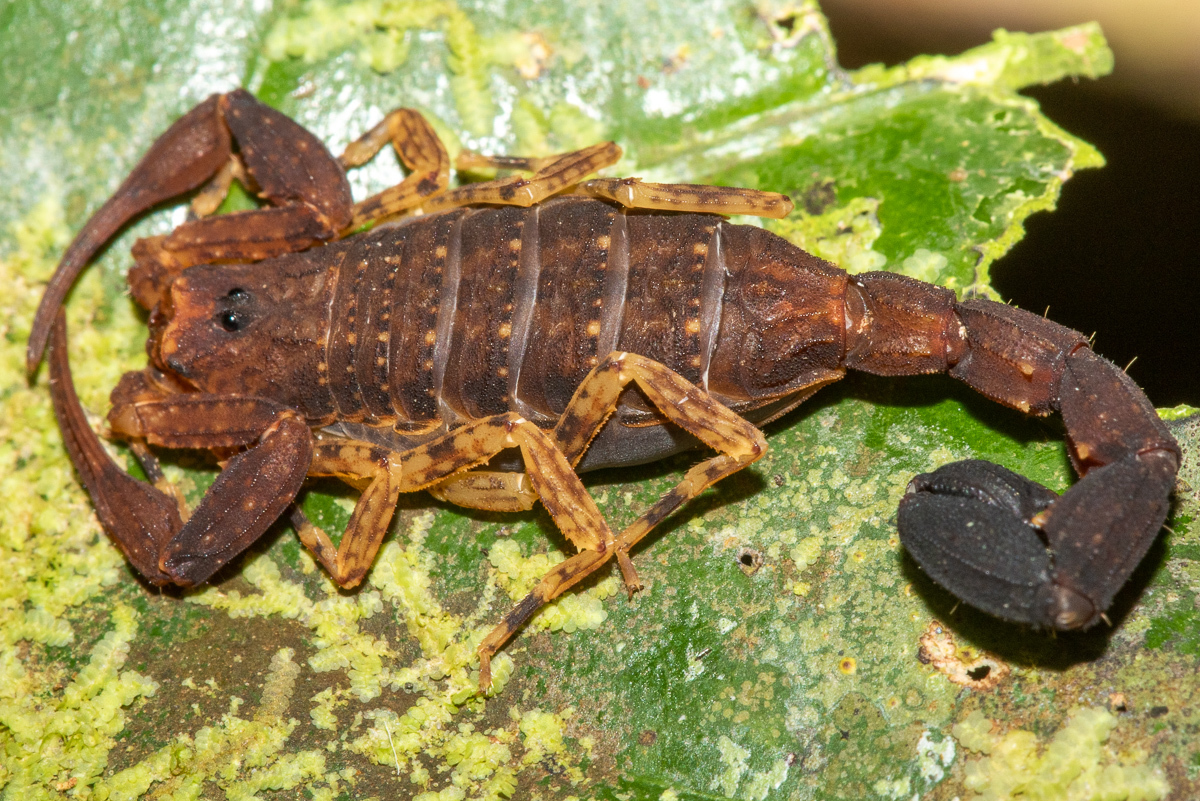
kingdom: Animalia
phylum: Arthropoda
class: Arachnida
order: Scorpiones
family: Buthidae
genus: Tityus
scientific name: Tityus bastosi
